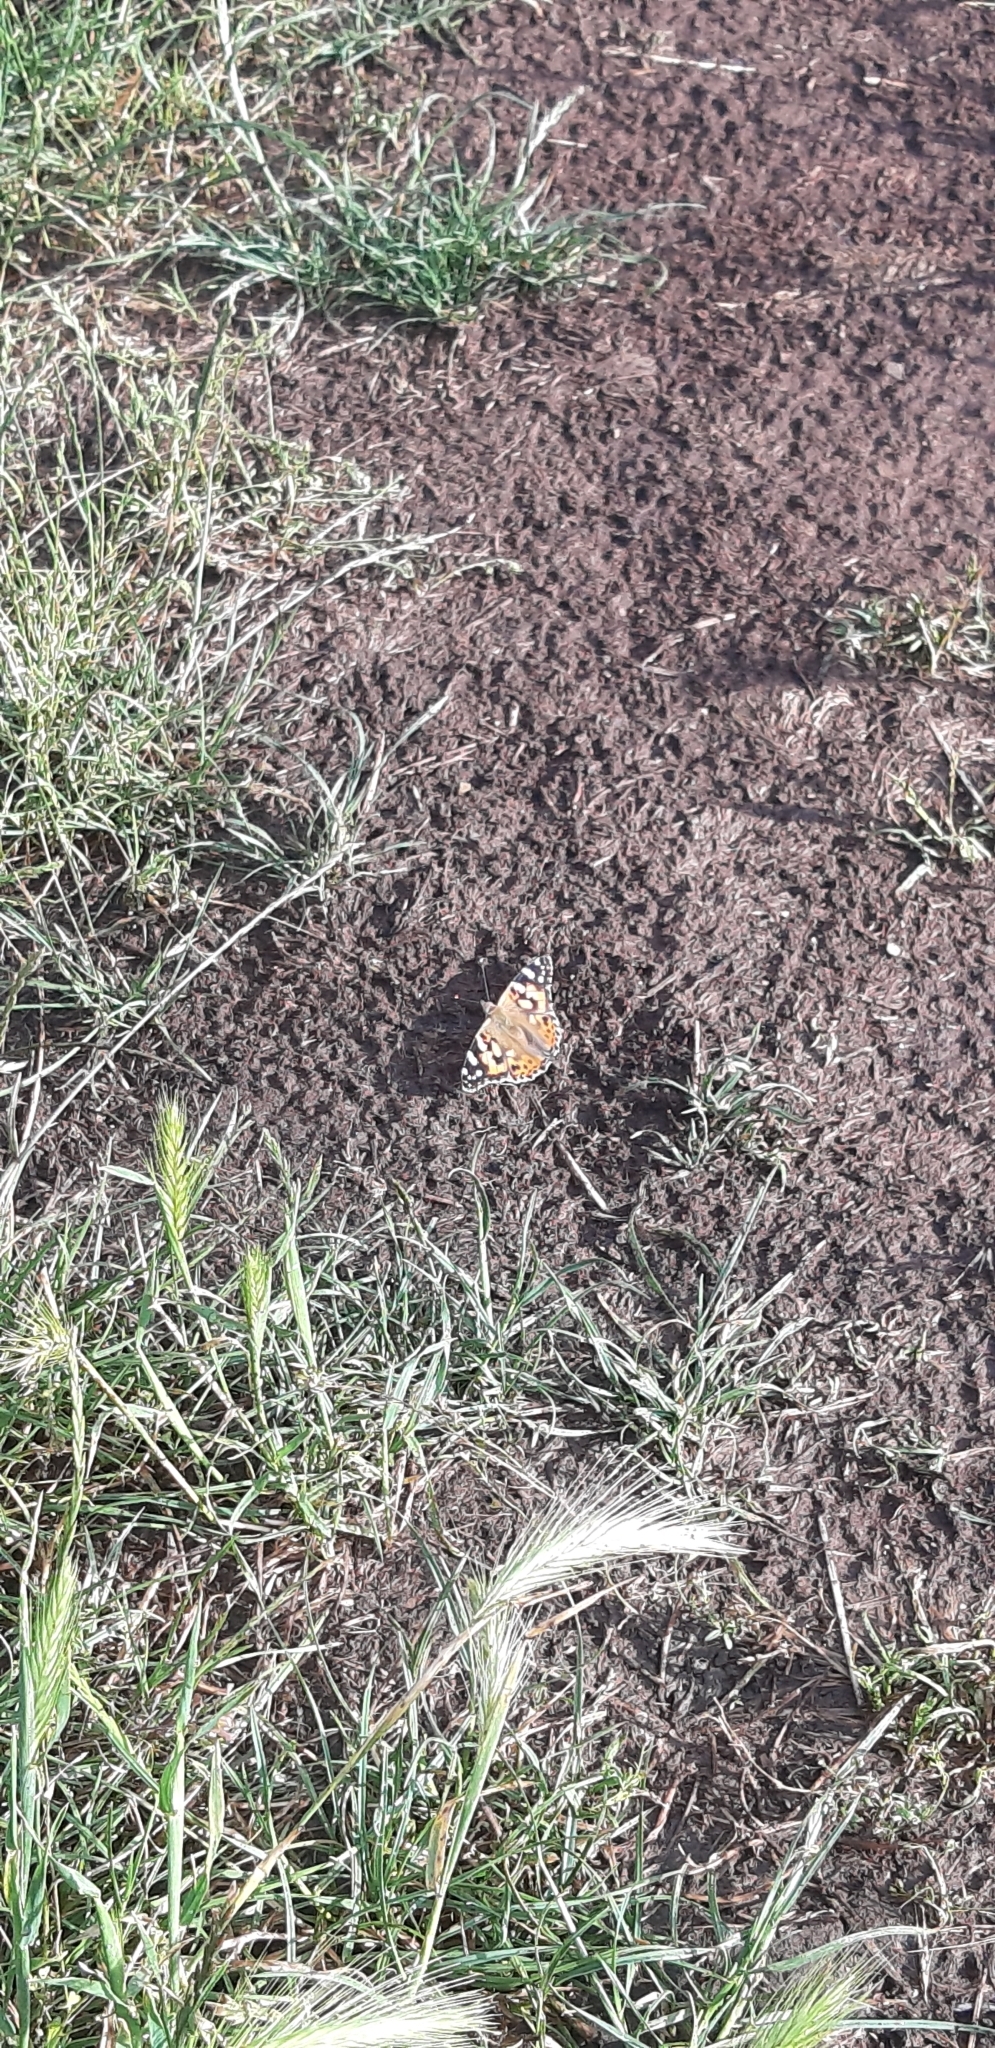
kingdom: Animalia
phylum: Arthropoda
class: Insecta
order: Lepidoptera
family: Nymphalidae
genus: Vanessa
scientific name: Vanessa cardui
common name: Painted lady
